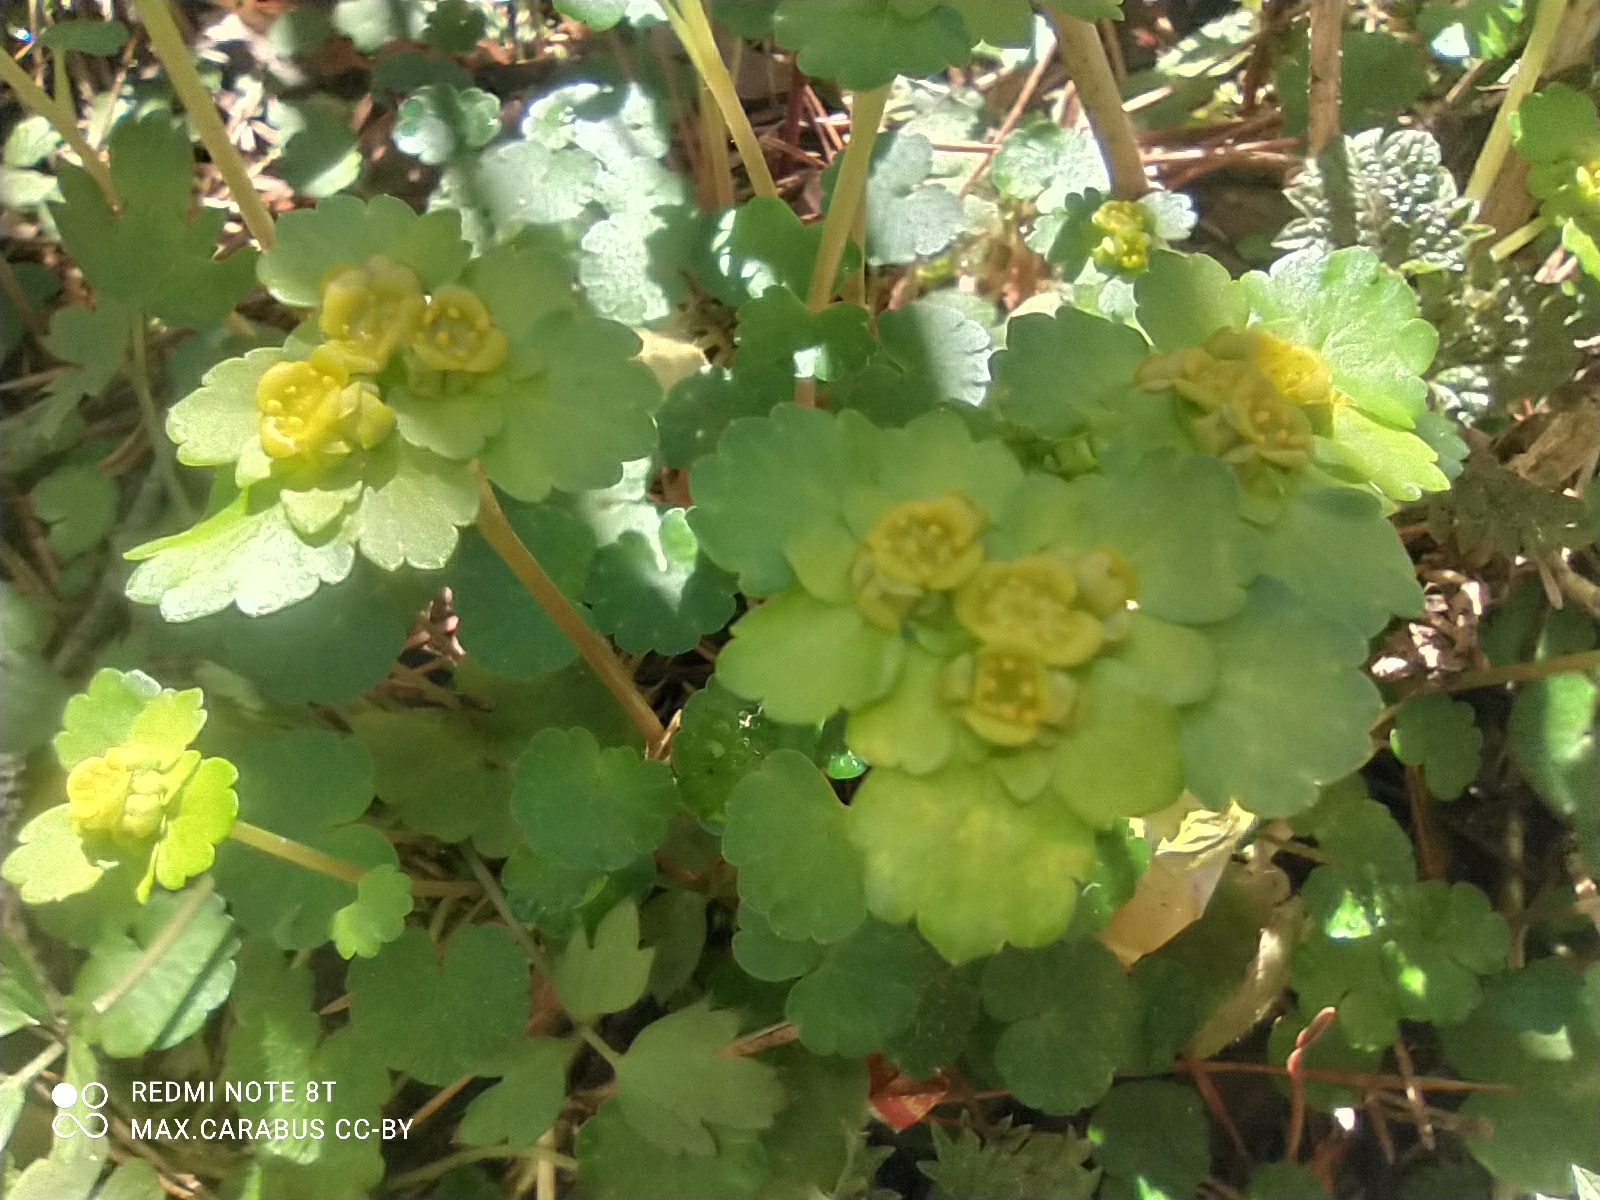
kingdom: Plantae
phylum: Tracheophyta
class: Magnoliopsida
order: Saxifragales
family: Saxifragaceae
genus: Chrysosplenium
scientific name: Chrysosplenium alternifolium
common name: Alternate-leaved golden-saxifrage
